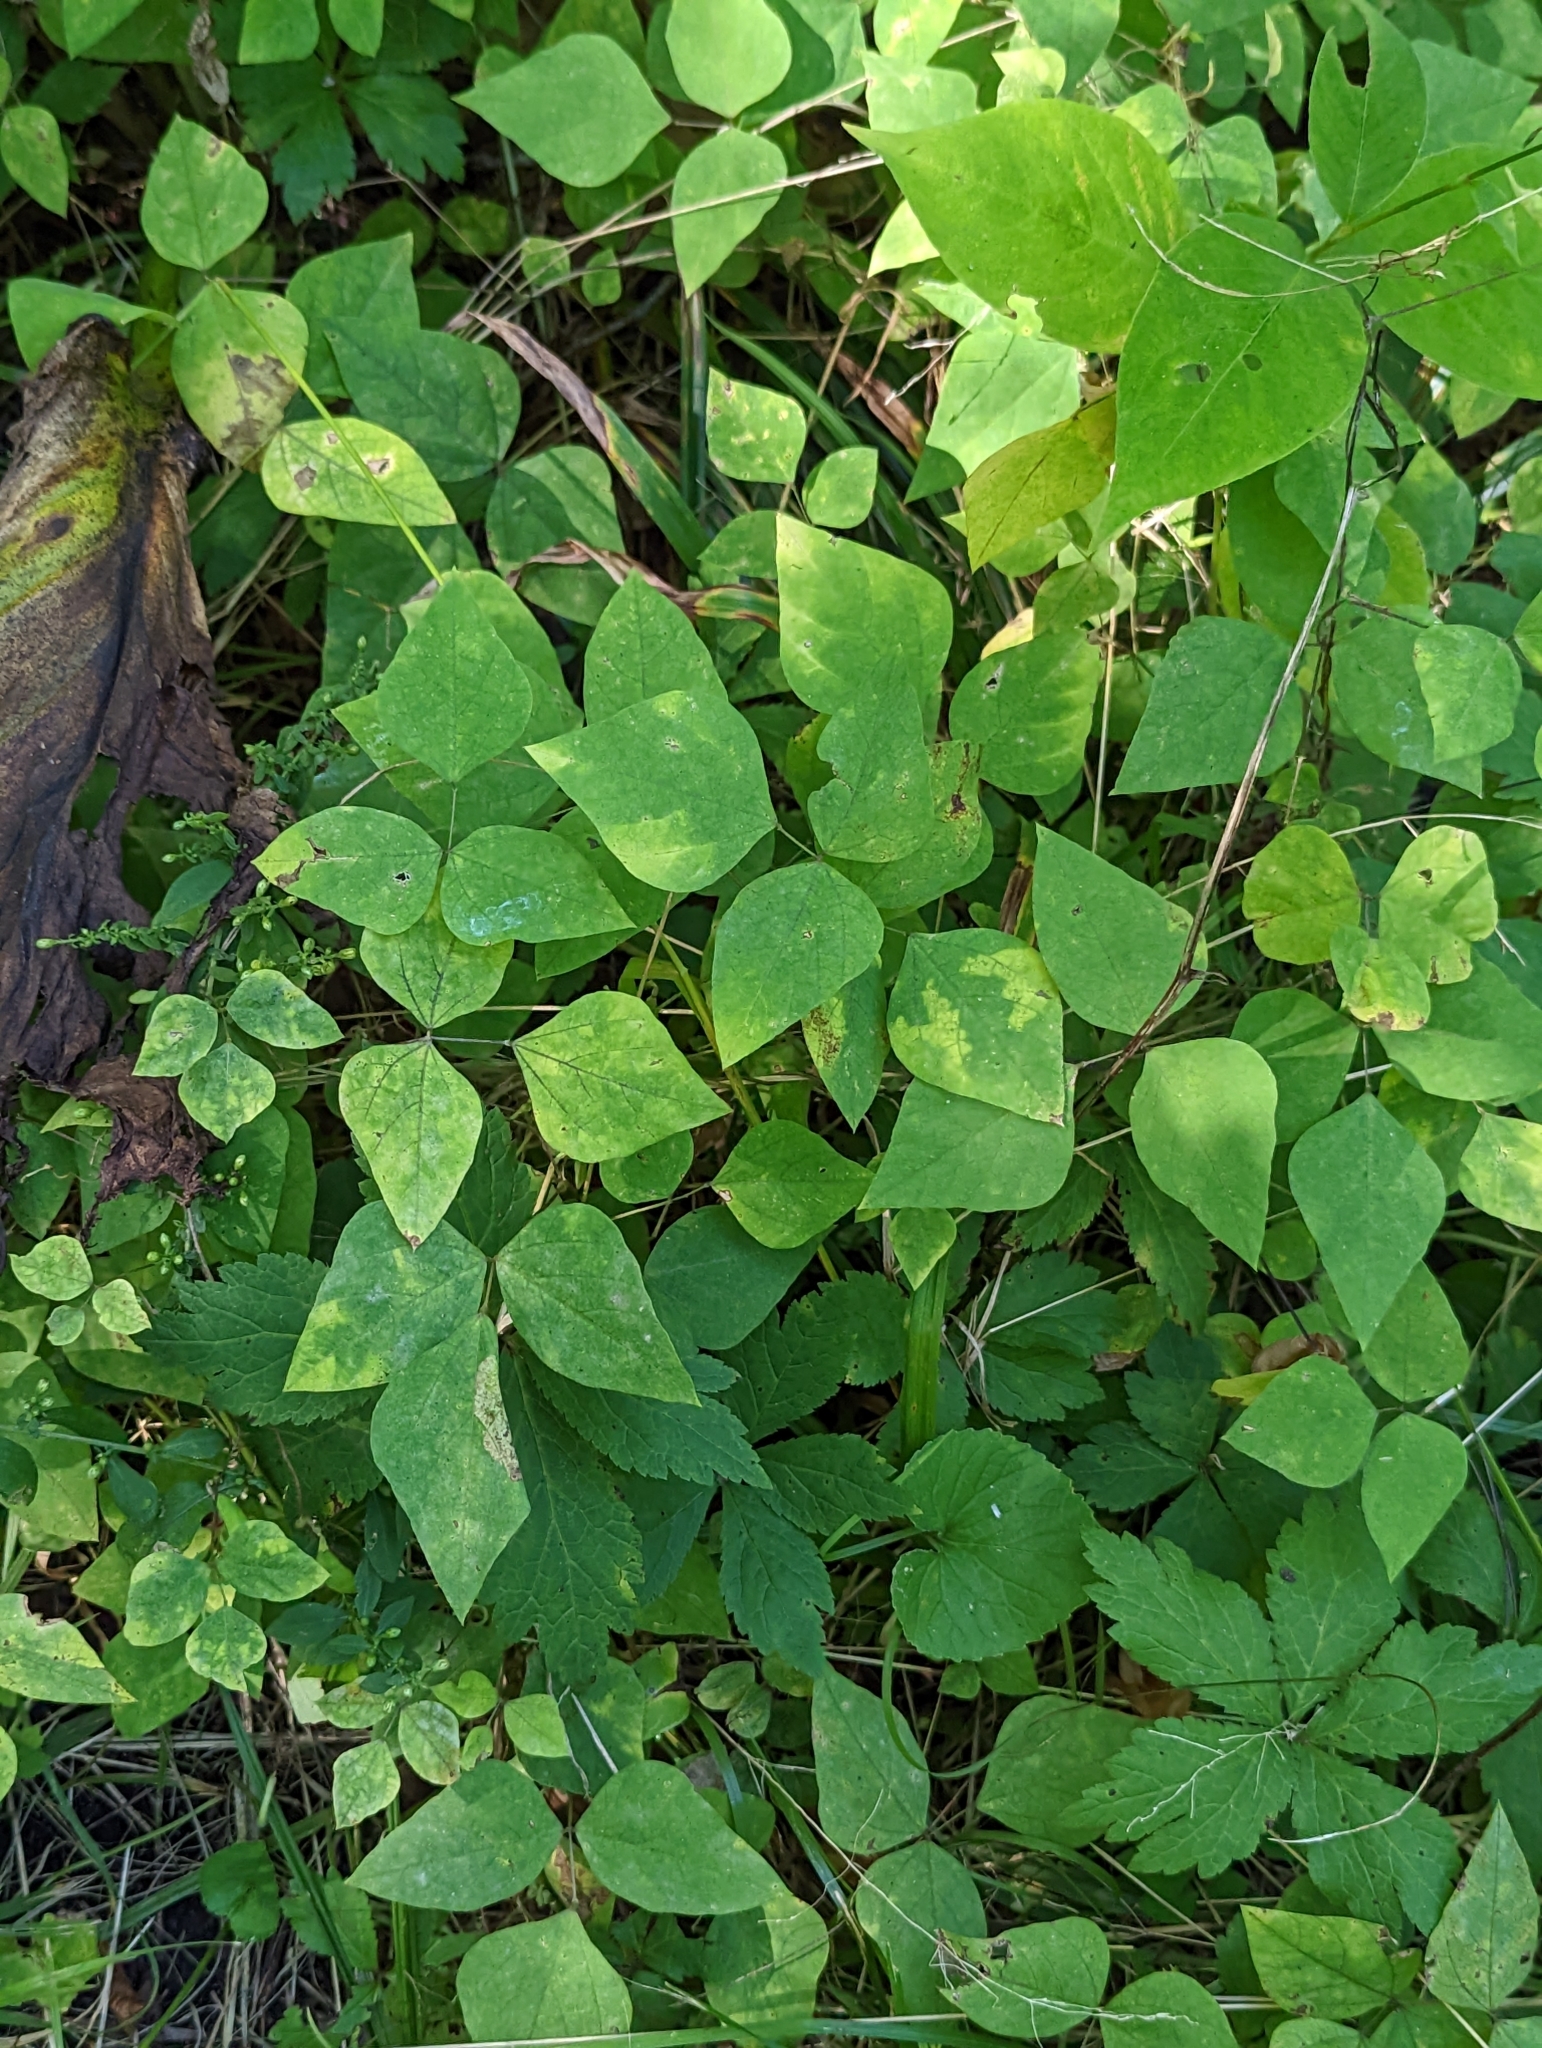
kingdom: Plantae
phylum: Tracheophyta
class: Magnoliopsida
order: Fabales
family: Fabaceae
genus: Amphicarpaea
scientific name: Amphicarpaea bracteata
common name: American hog peanut
